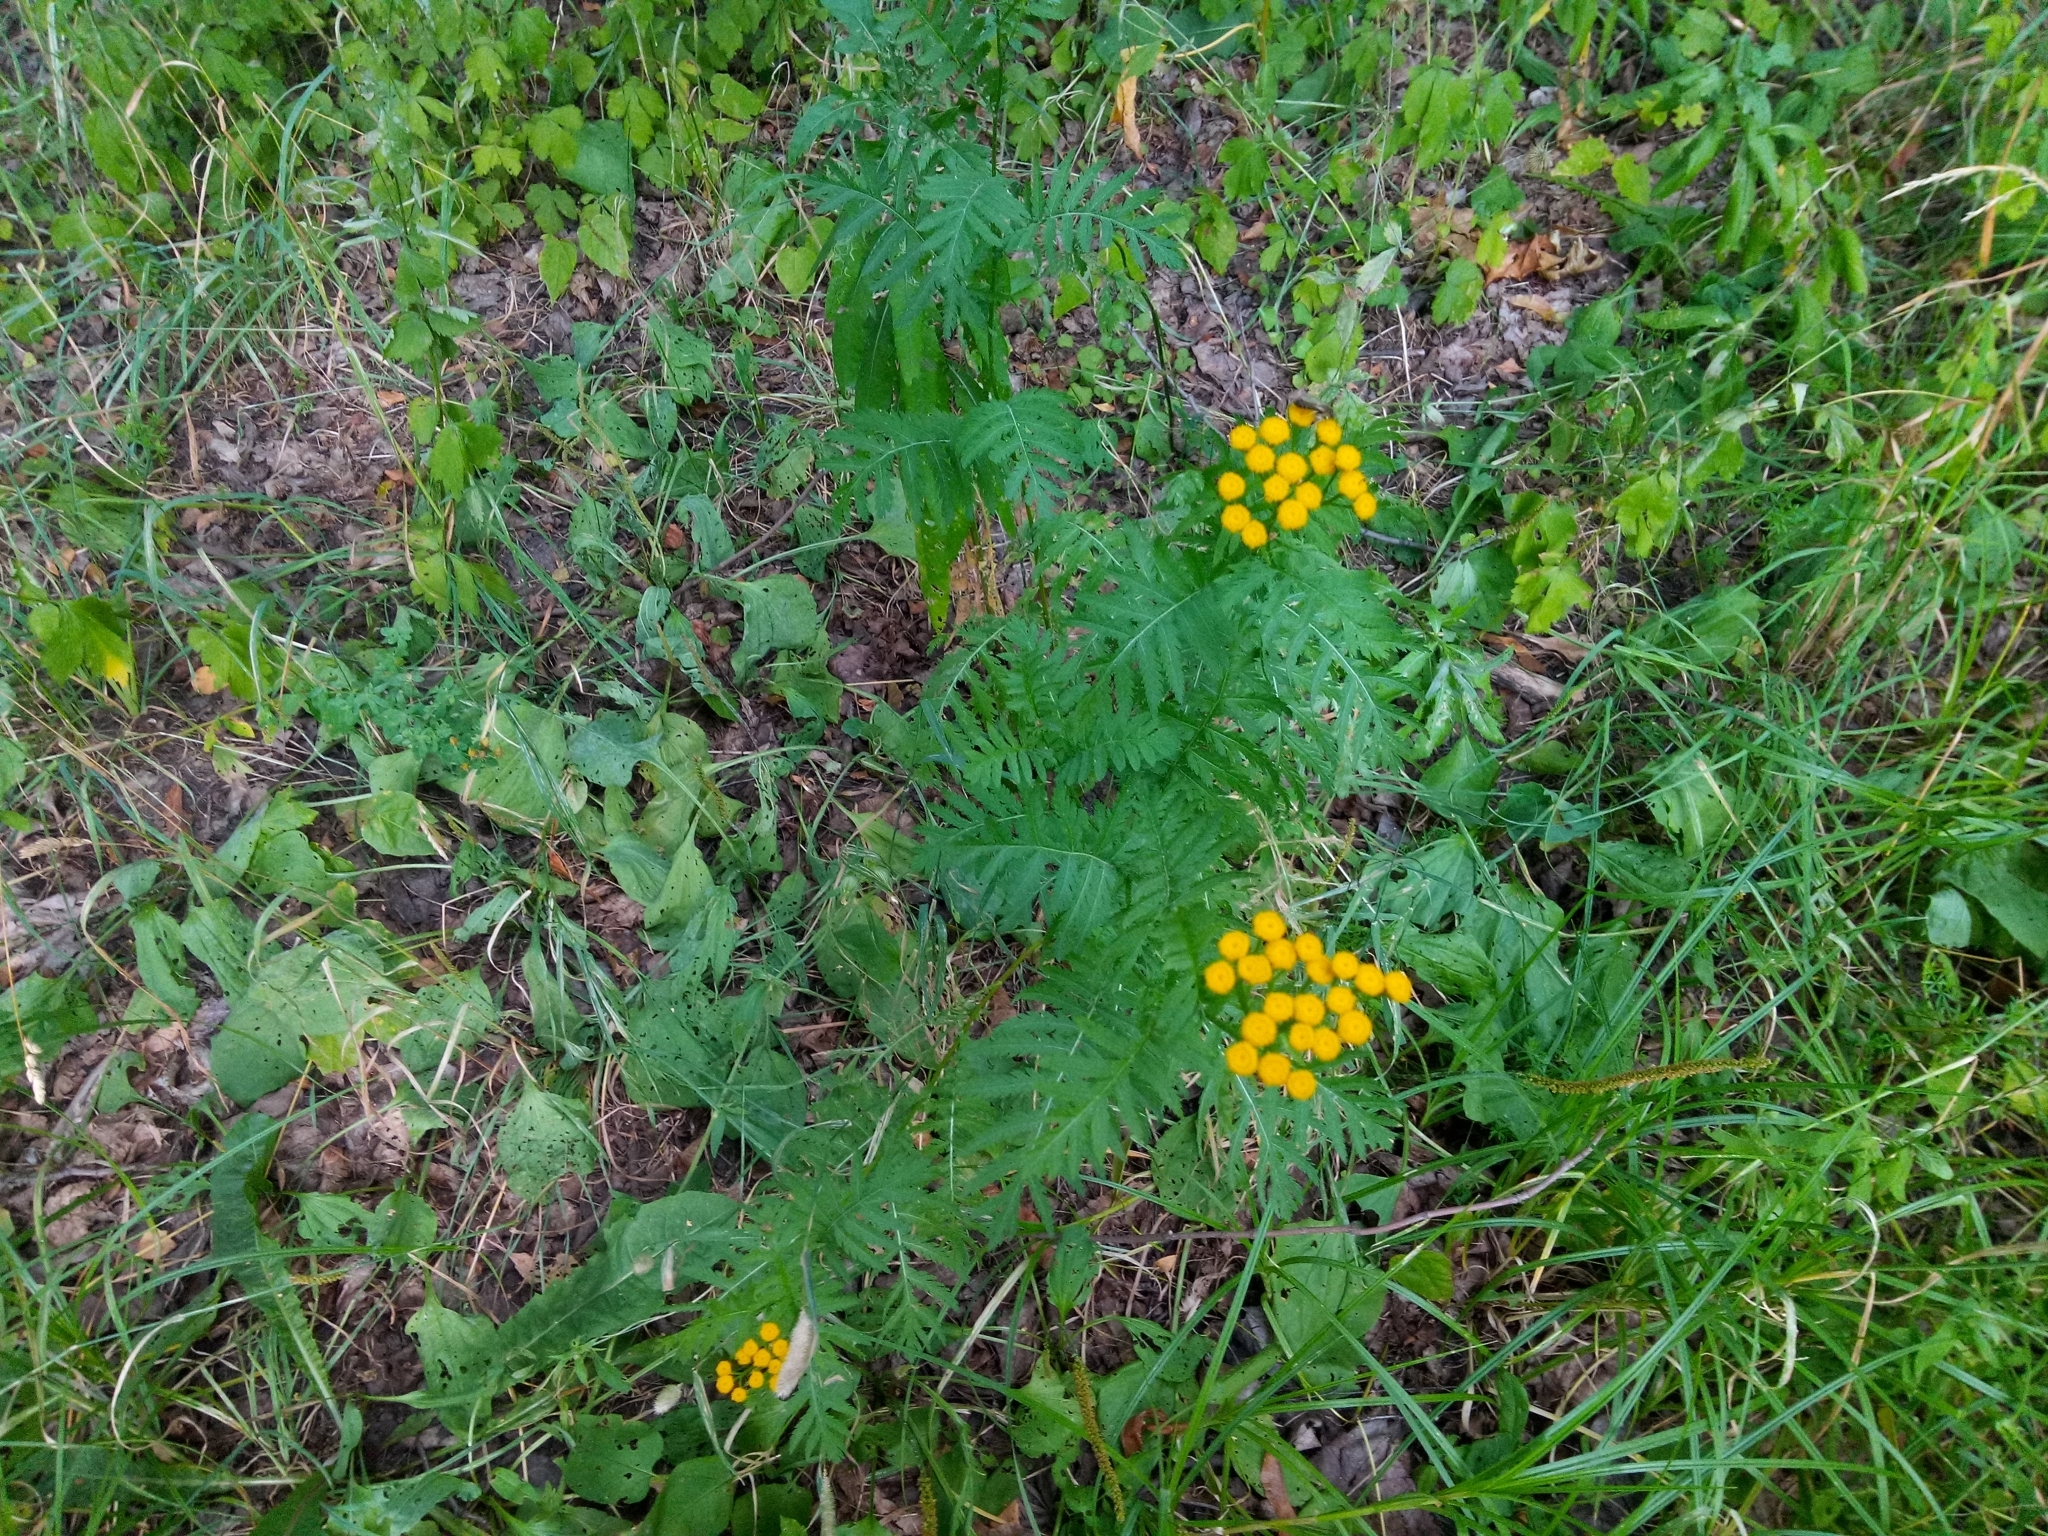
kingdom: Plantae
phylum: Tracheophyta
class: Magnoliopsida
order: Asterales
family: Asteraceae
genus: Tanacetum
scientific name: Tanacetum vulgare
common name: Common tansy
